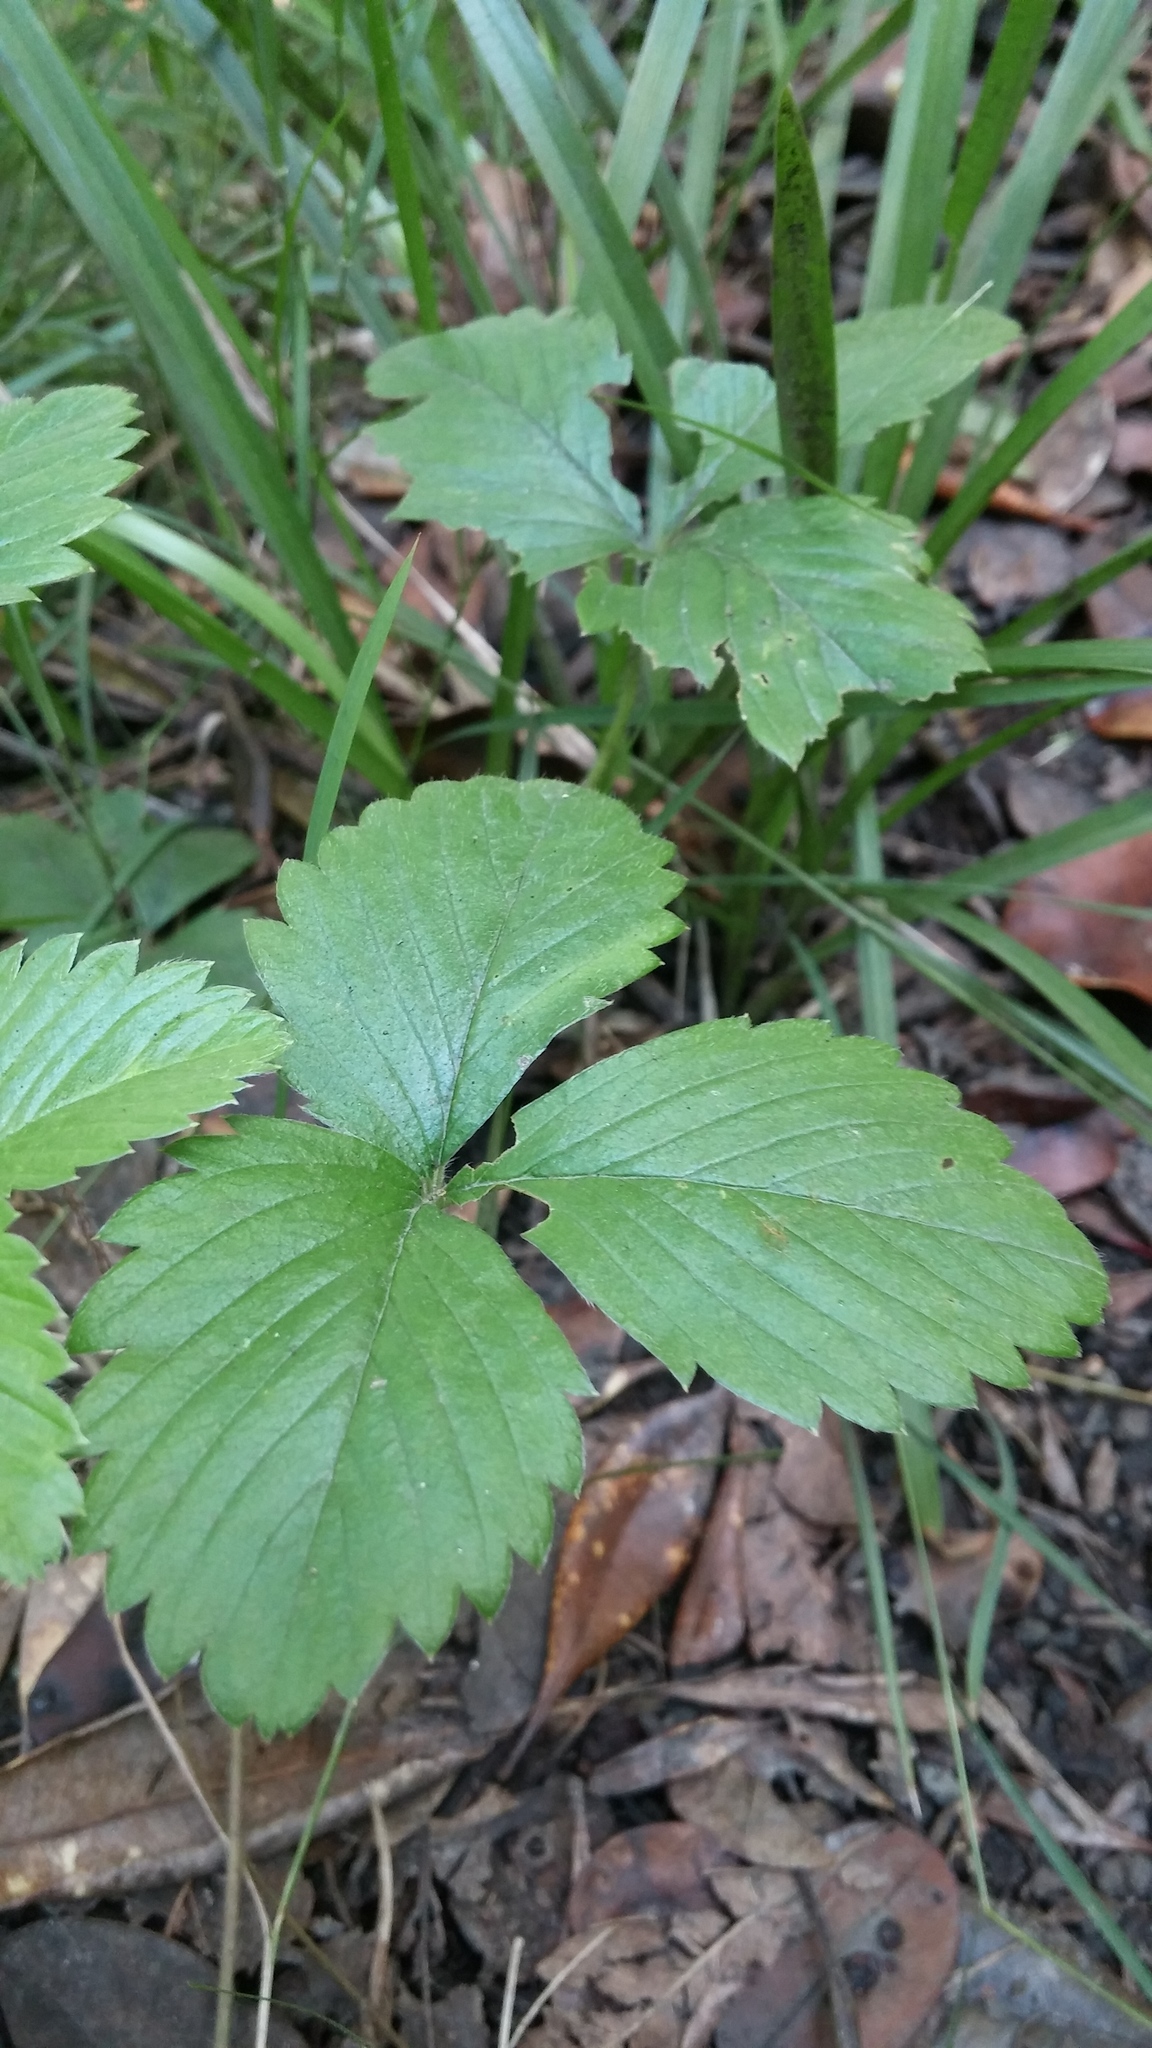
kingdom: Plantae
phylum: Tracheophyta
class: Magnoliopsida
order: Rosales
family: Rosaceae
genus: Fragaria
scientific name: Fragaria vesca
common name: Wild strawberry
